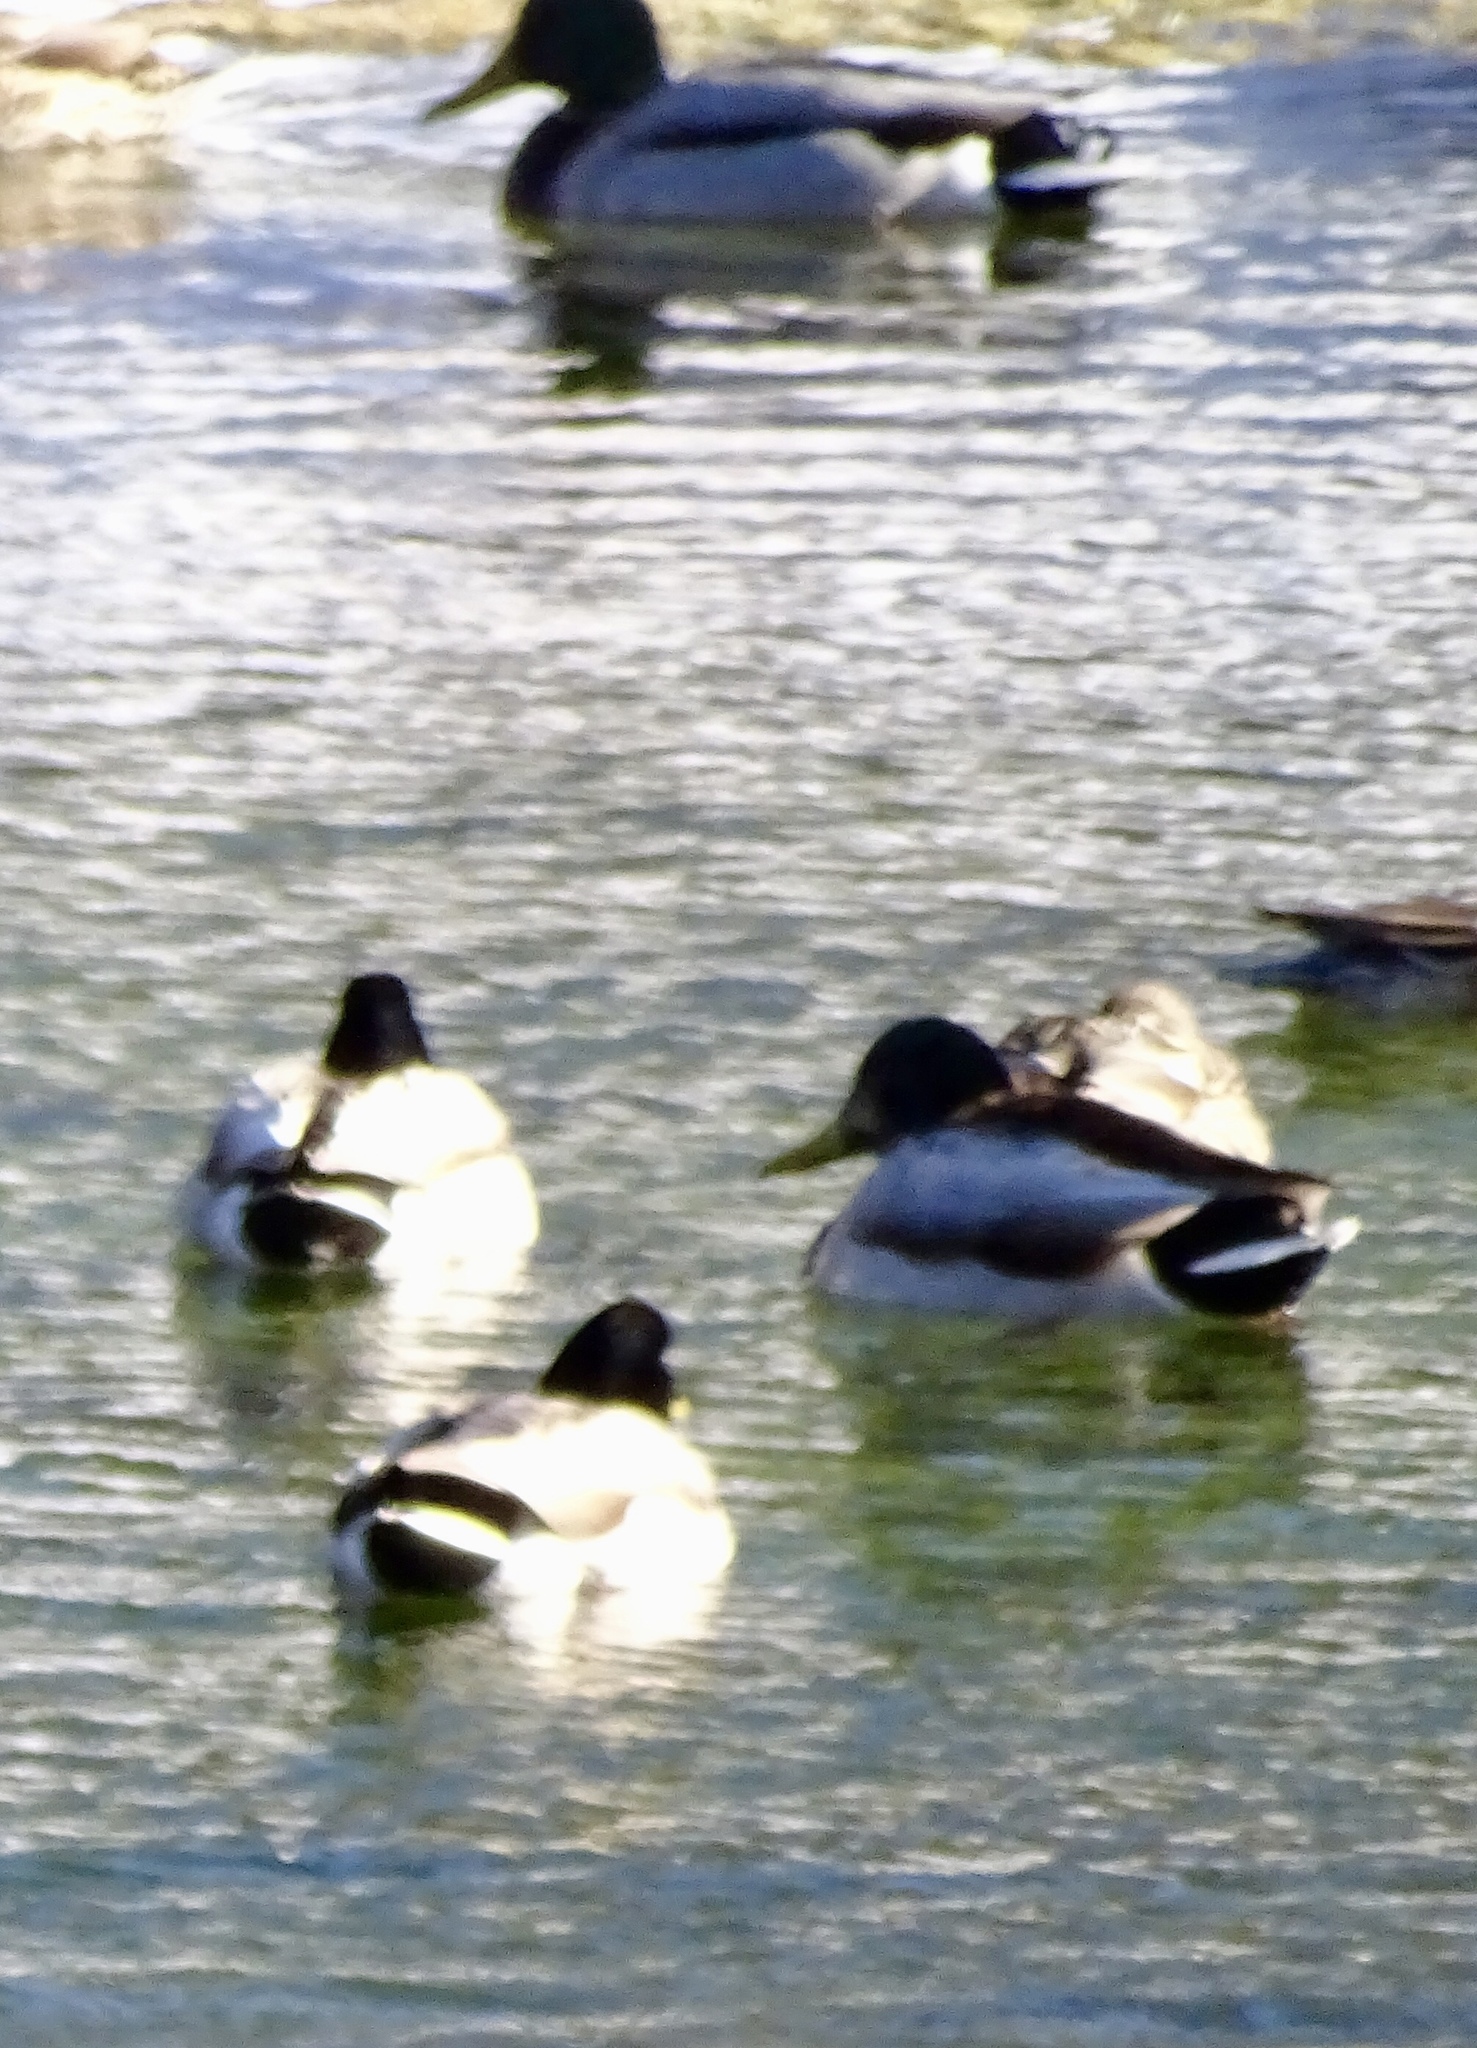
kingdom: Animalia
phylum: Chordata
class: Aves
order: Anseriformes
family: Anatidae
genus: Anas
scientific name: Anas platyrhynchos
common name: Mallard
